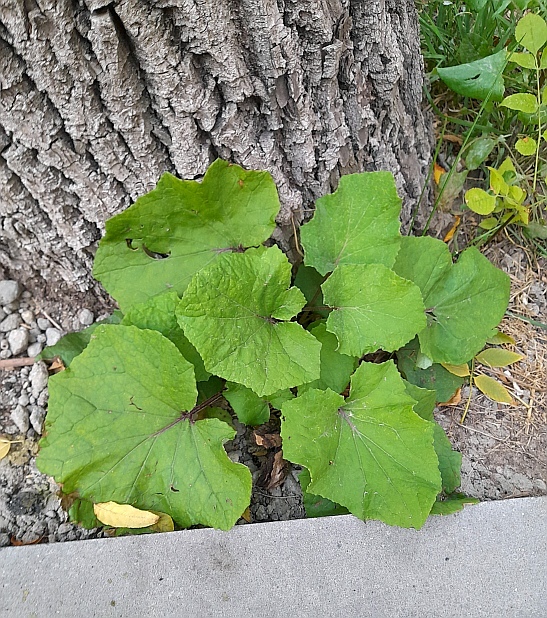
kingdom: Plantae
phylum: Tracheophyta
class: Magnoliopsida
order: Asterales
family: Asteraceae
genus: Tussilago
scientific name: Tussilago farfara
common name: Coltsfoot
